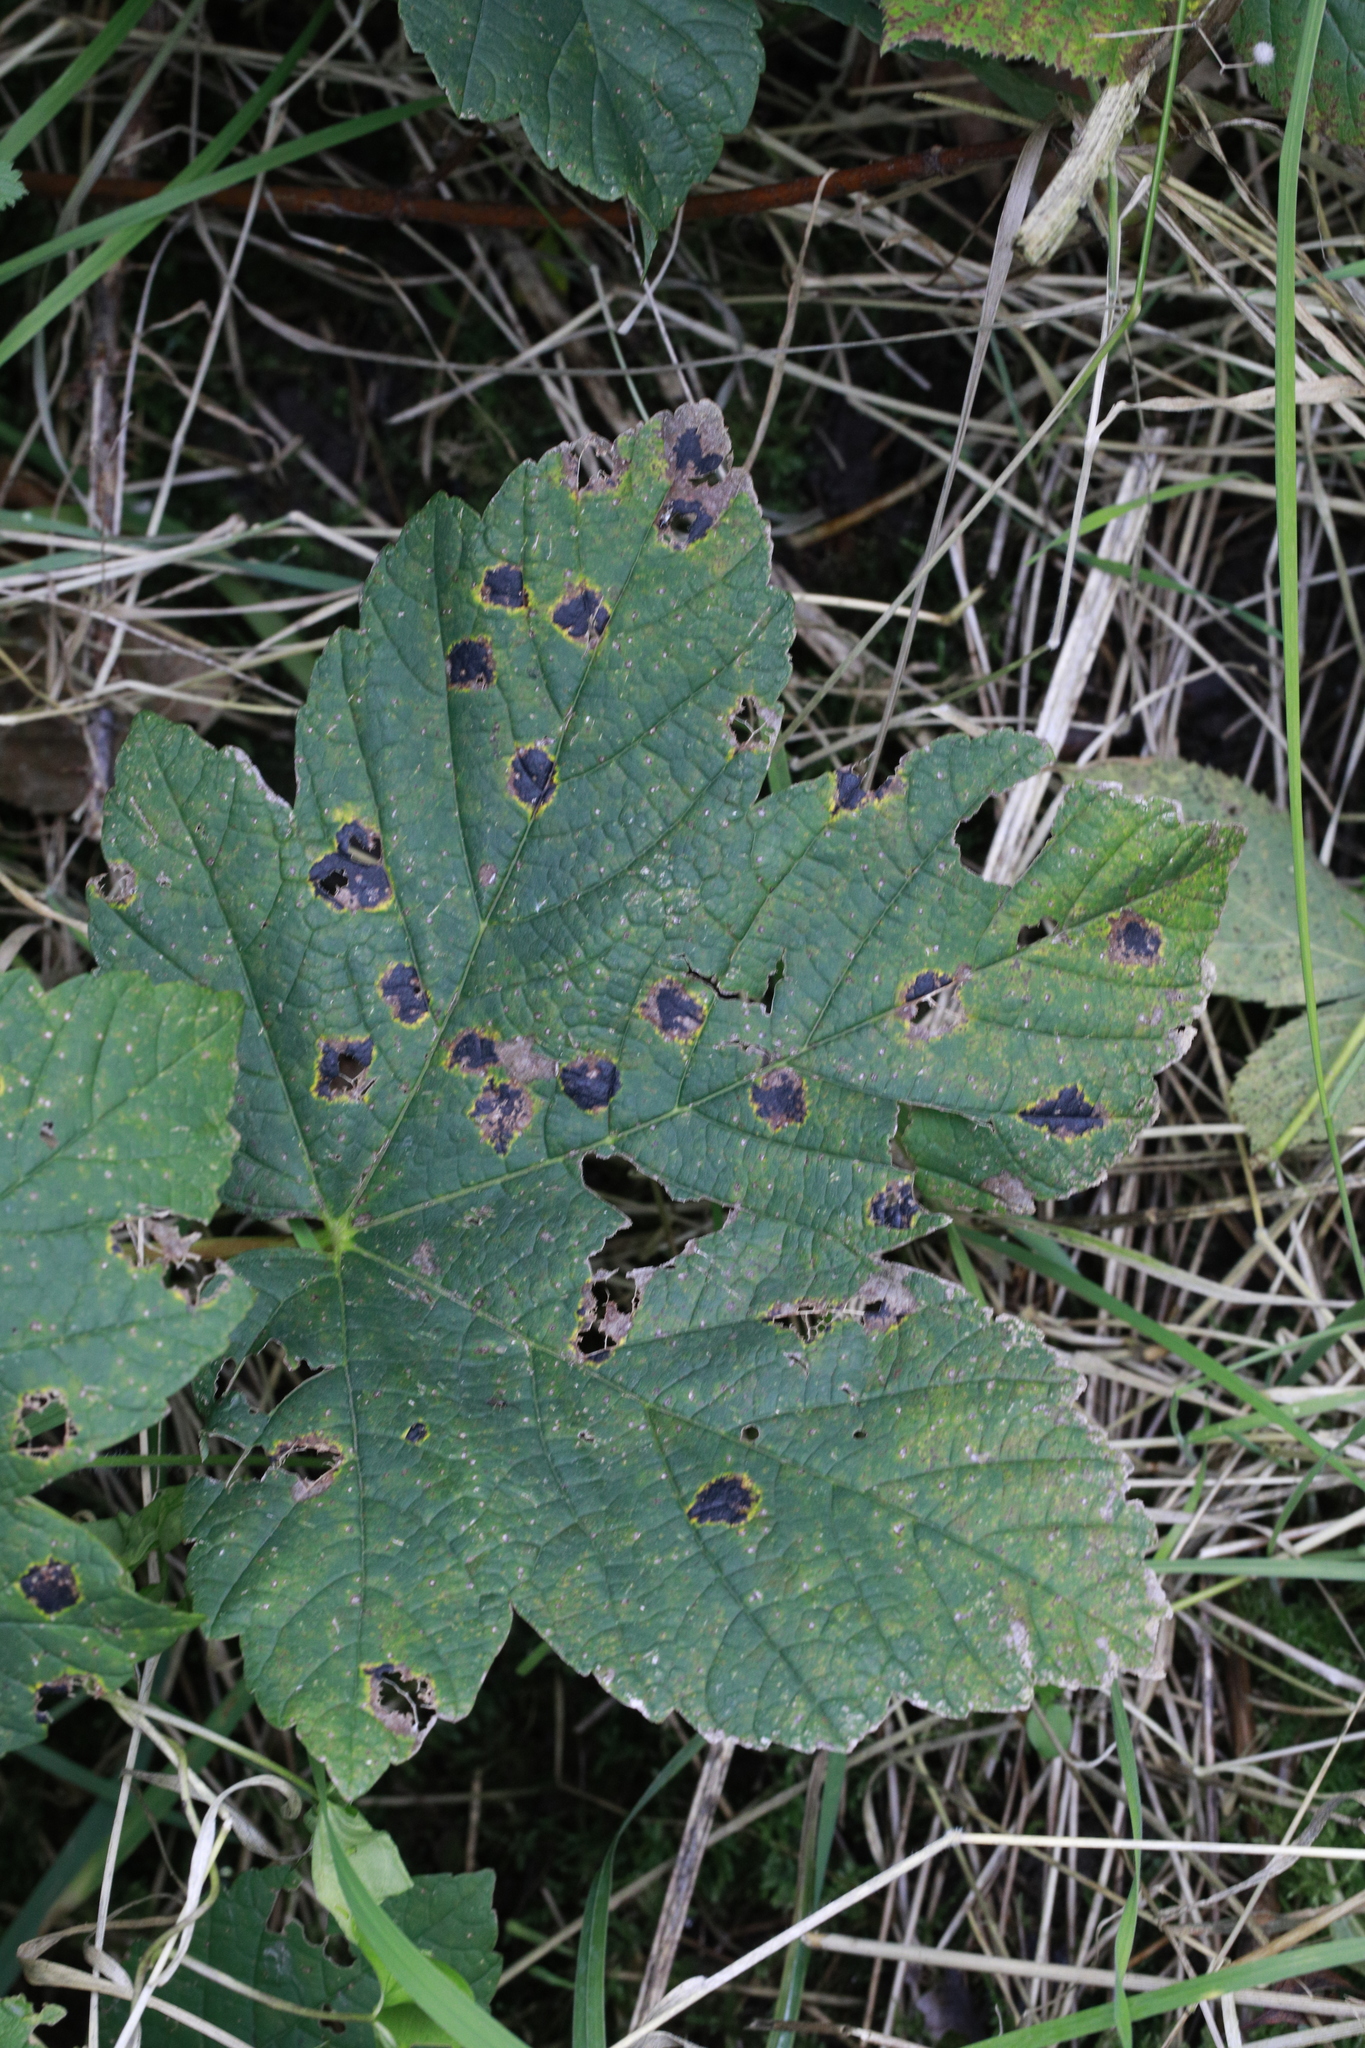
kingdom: Fungi
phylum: Ascomycota
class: Leotiomycetes
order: Rhytismatales
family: Rhytismataceae
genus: Rhytisma
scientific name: Rhytisma acerinum
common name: European tar spot
